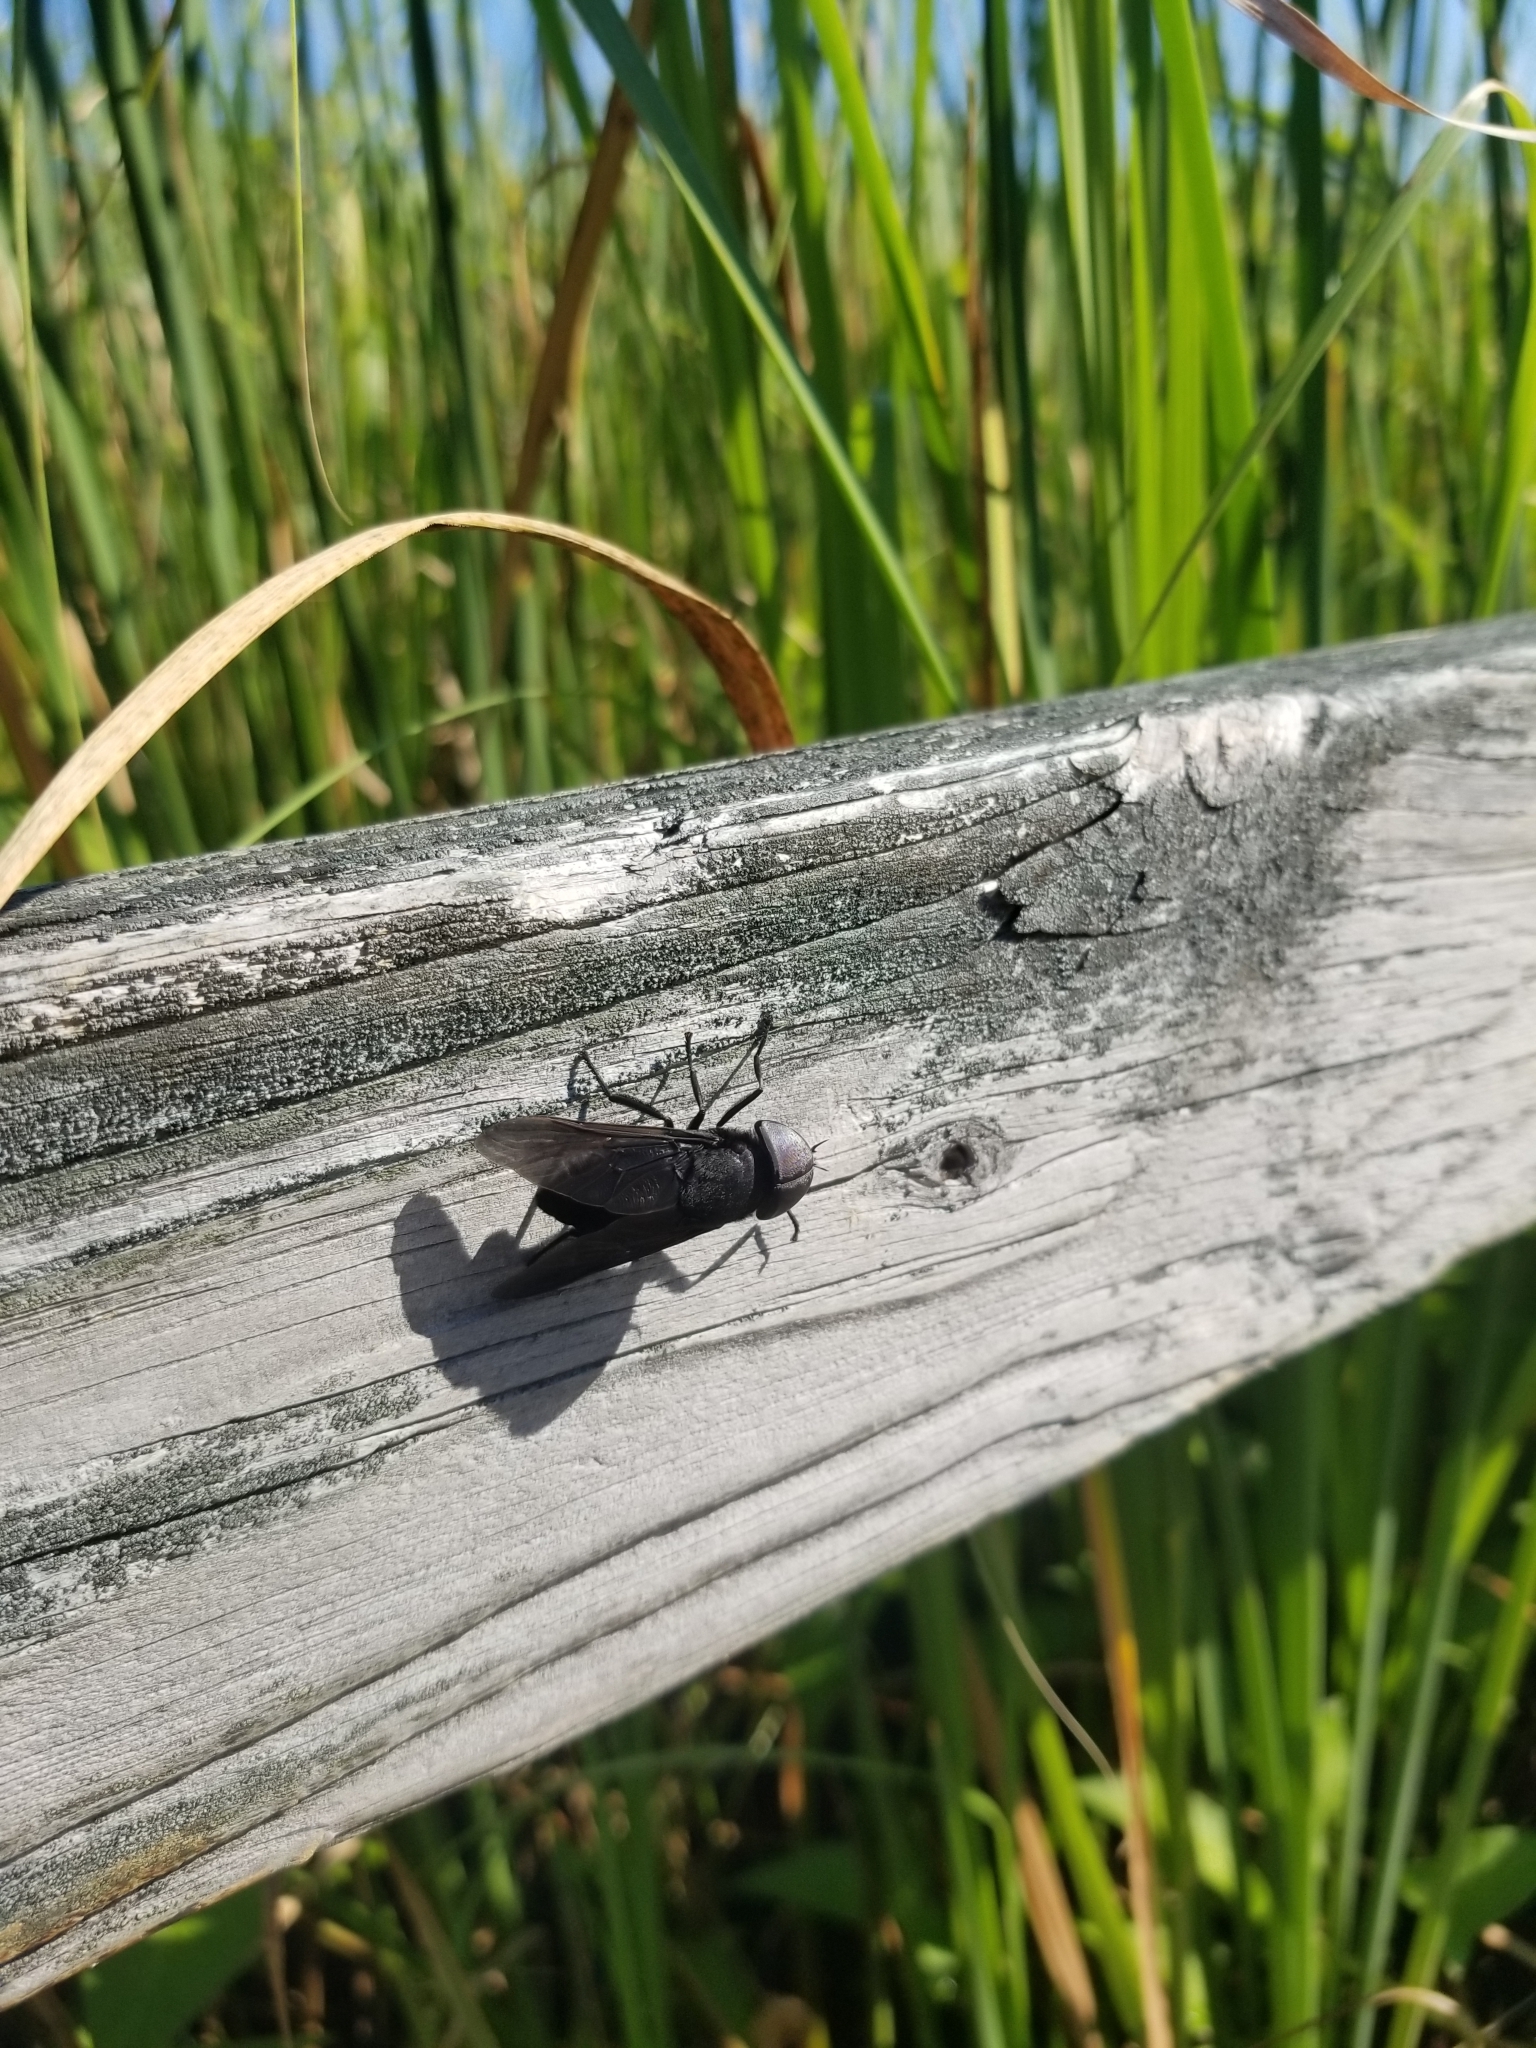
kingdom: Animalia
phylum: Arthropoda
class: Insecta
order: Diptera
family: Tabanidae
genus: Tabanus
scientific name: Tabanus atratus
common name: Black horse fly
